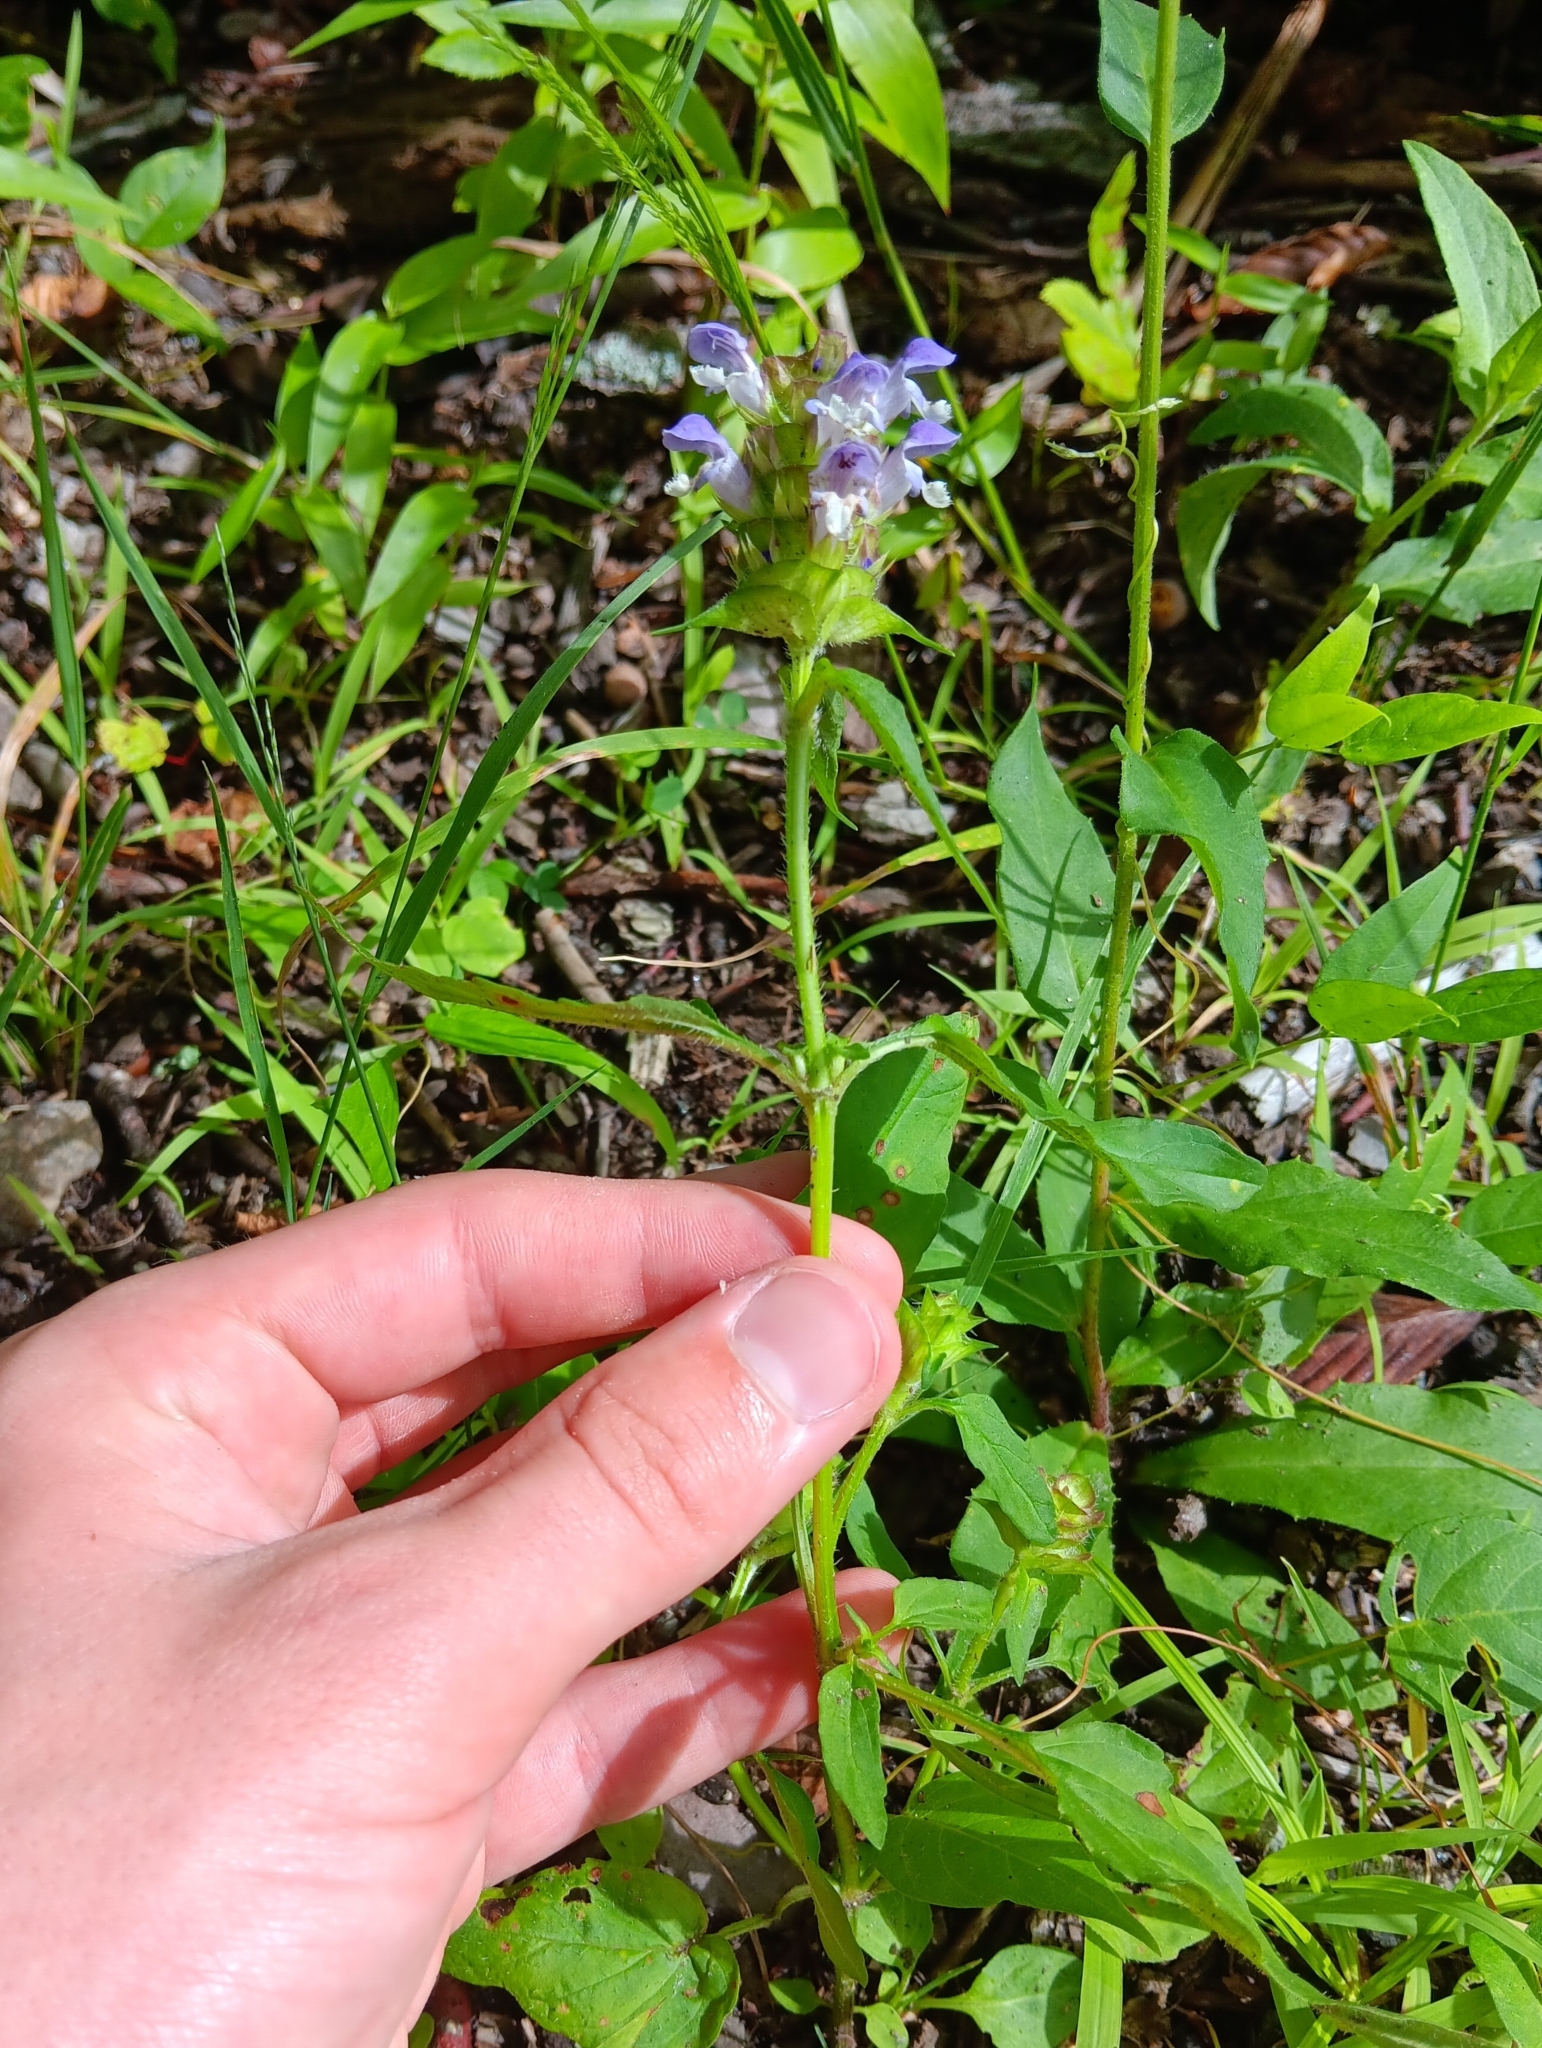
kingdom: Plantae
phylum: Tracheophyta
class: Magnoliopsida
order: Lamiales
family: Lamiaceae
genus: Prunella
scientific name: Prunella vulgaris
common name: Heal-all
